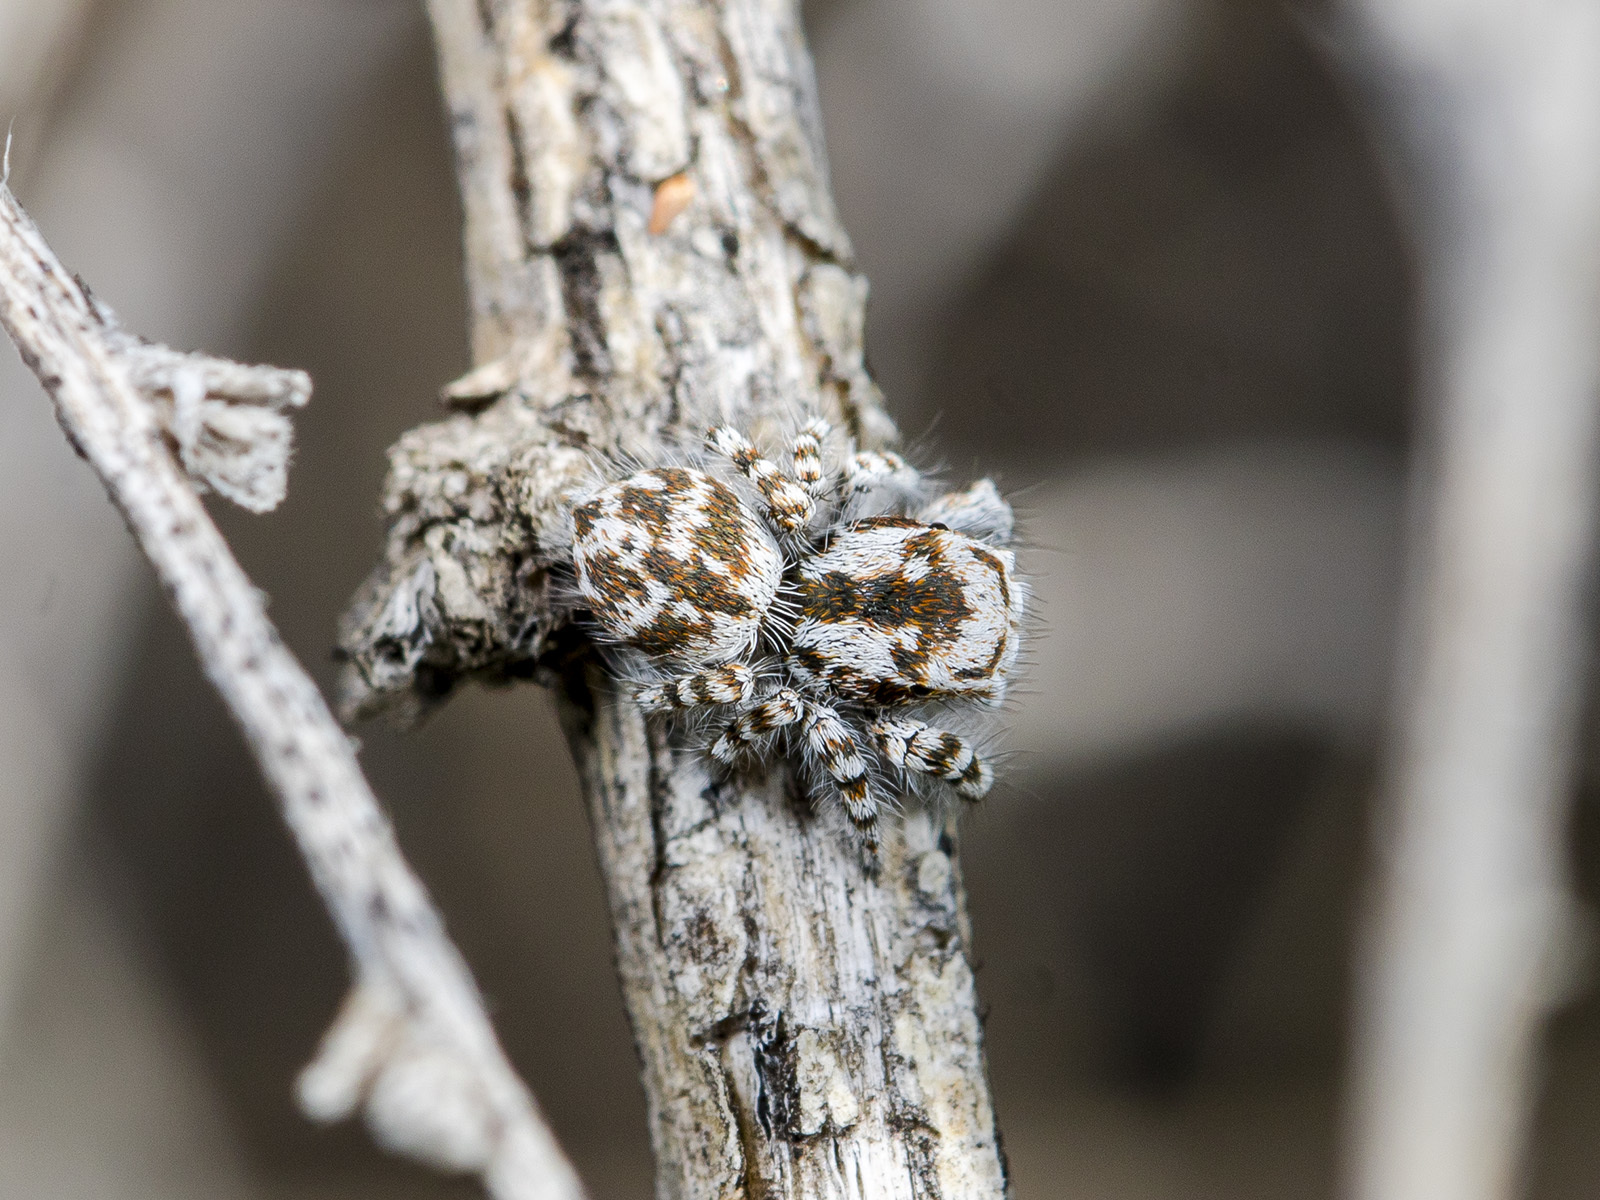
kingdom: Animalia
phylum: Arthropoda
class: Arachnida
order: Araneae
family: Salticidae
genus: Pseudomogrus
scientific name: Pseudomogrus dalaensis
